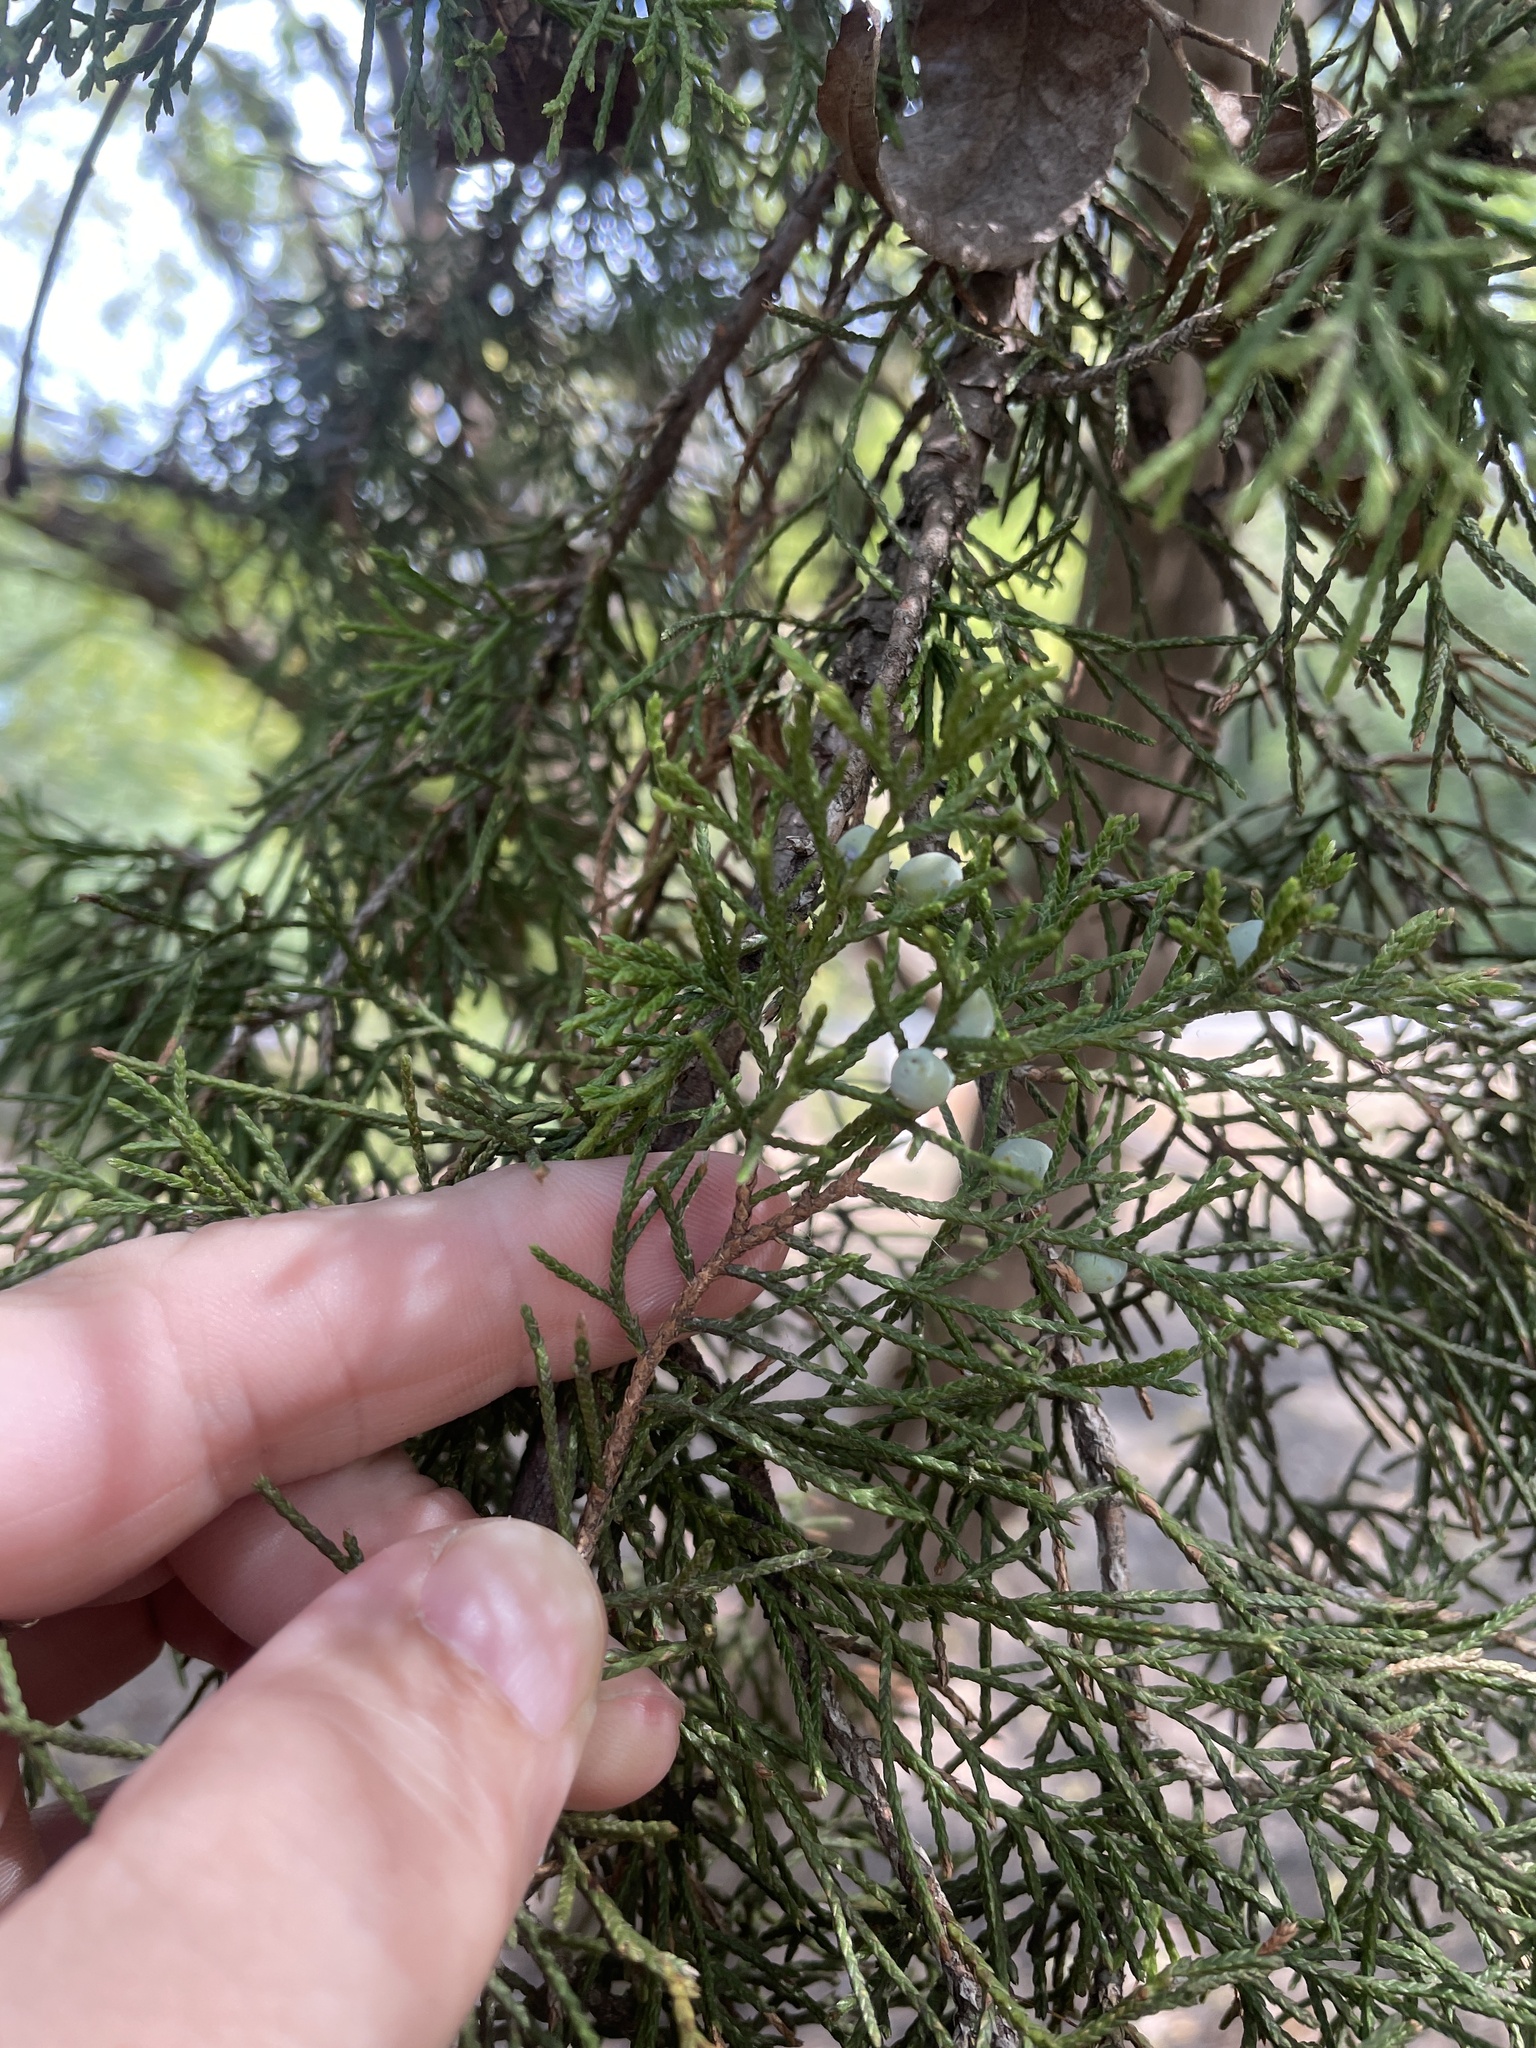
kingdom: Plantae
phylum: Tracheophyta
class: Pinopsida
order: Pinales
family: Cupressaceae
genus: Juniperus
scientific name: Juniperus virginiana
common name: Red juniper
